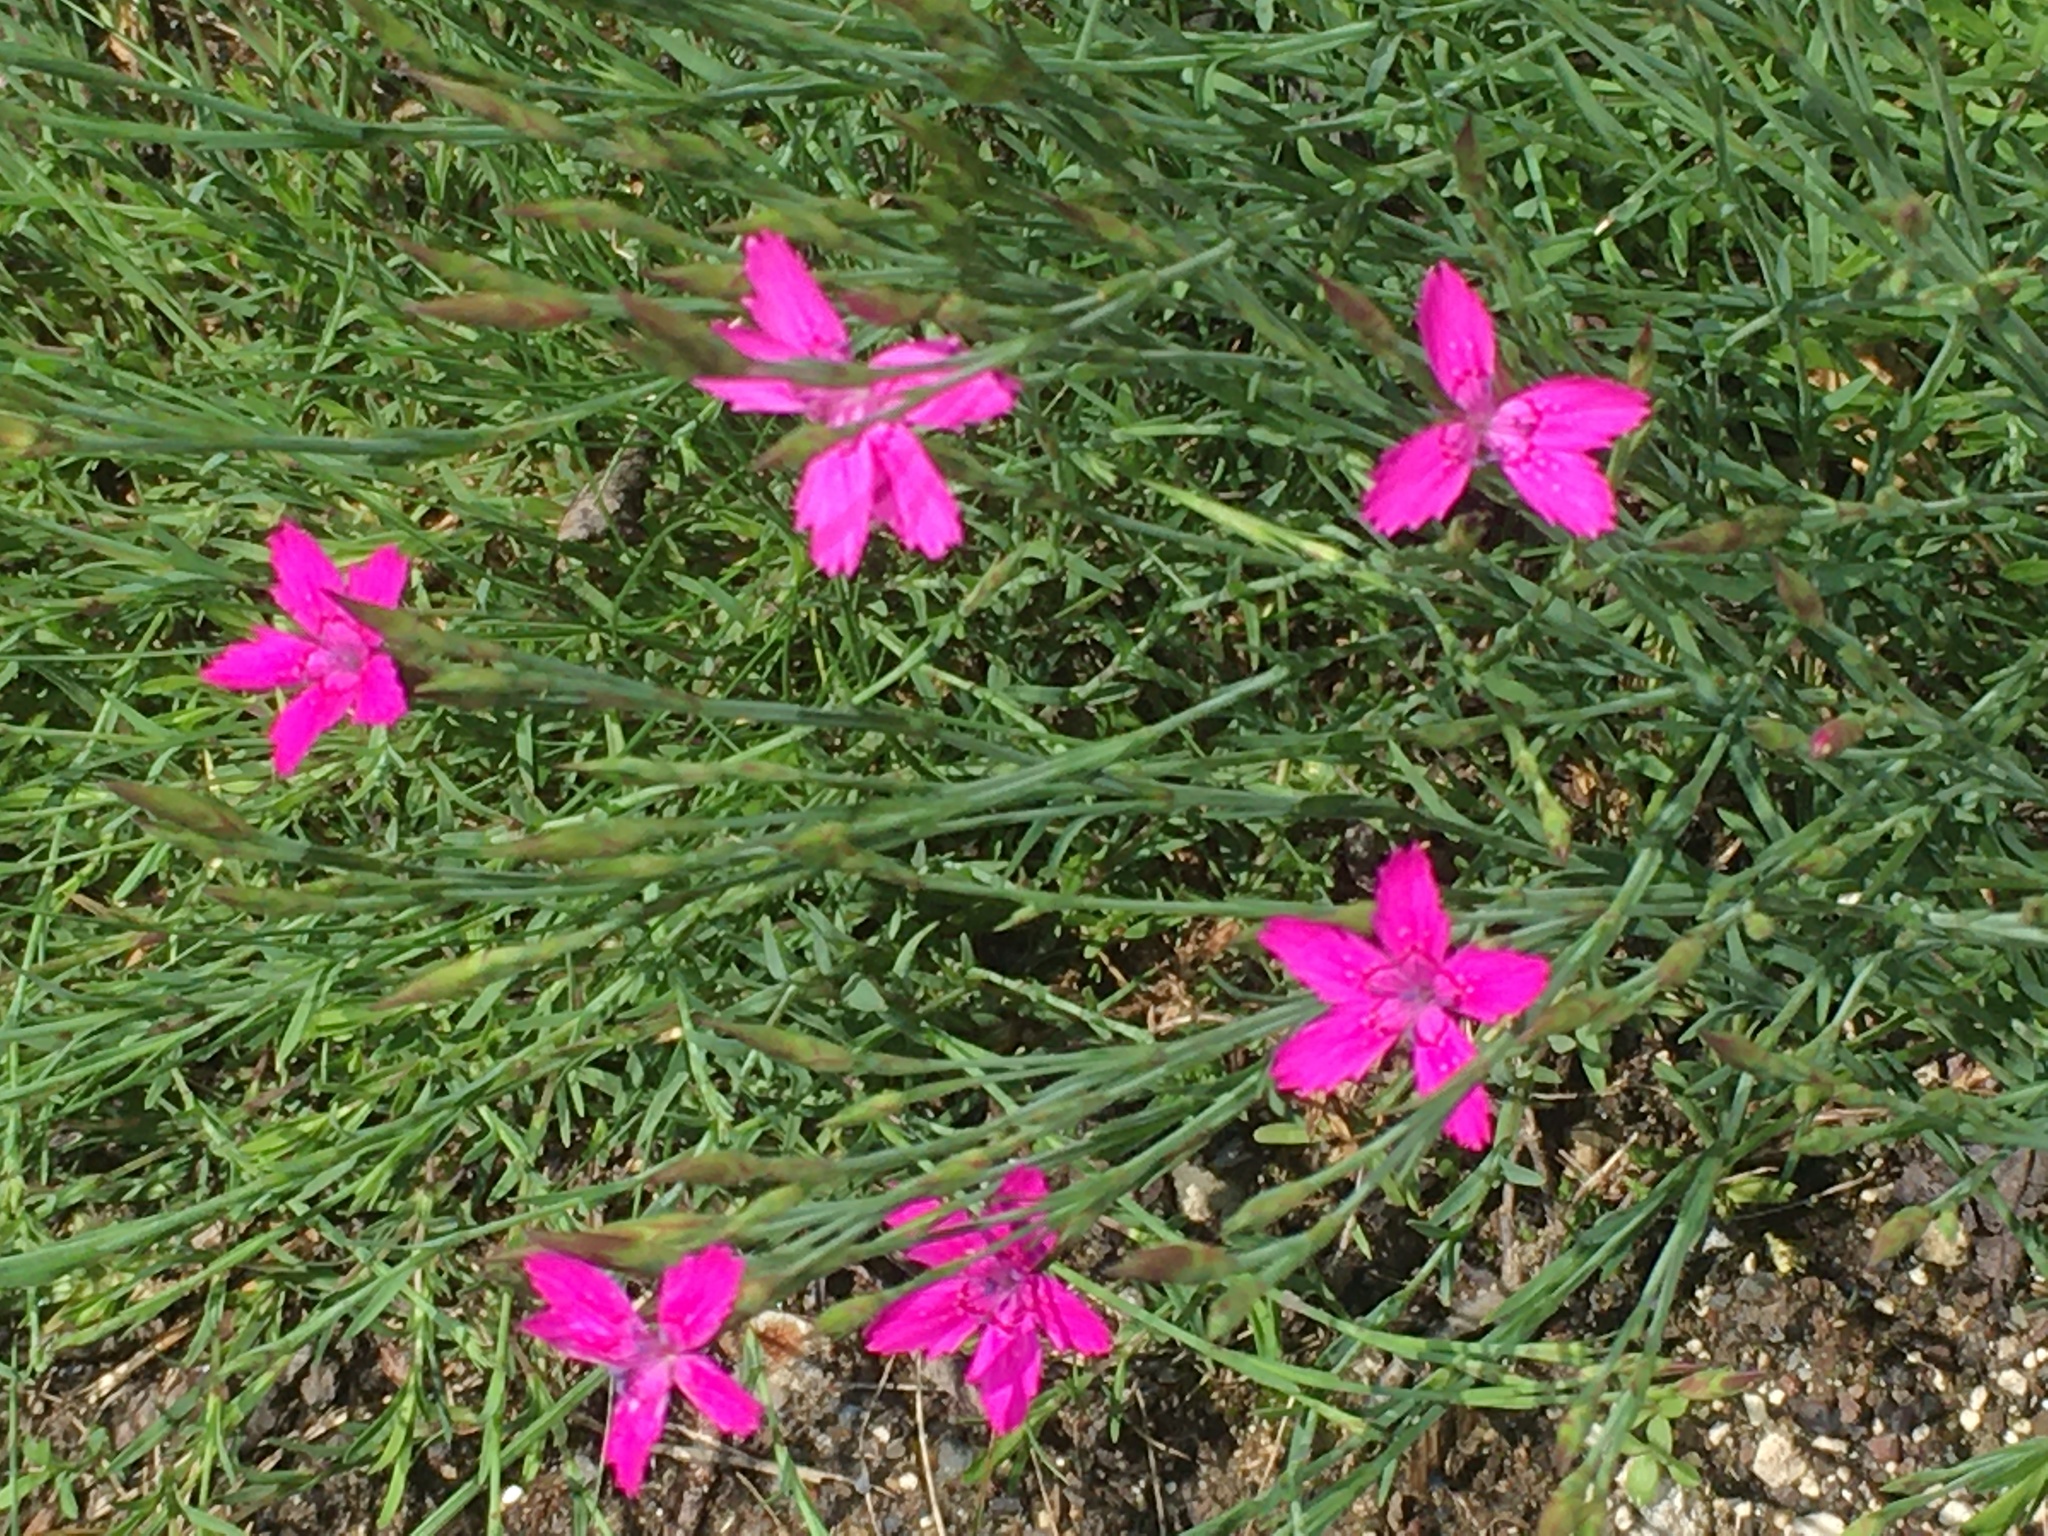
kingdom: Plantae
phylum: Tracheophyta
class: Magnoliopsida
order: Caryophyllales
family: Caryophyllaceae
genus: Dianthus
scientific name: Dianthus deltoides
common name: Maiden pink
